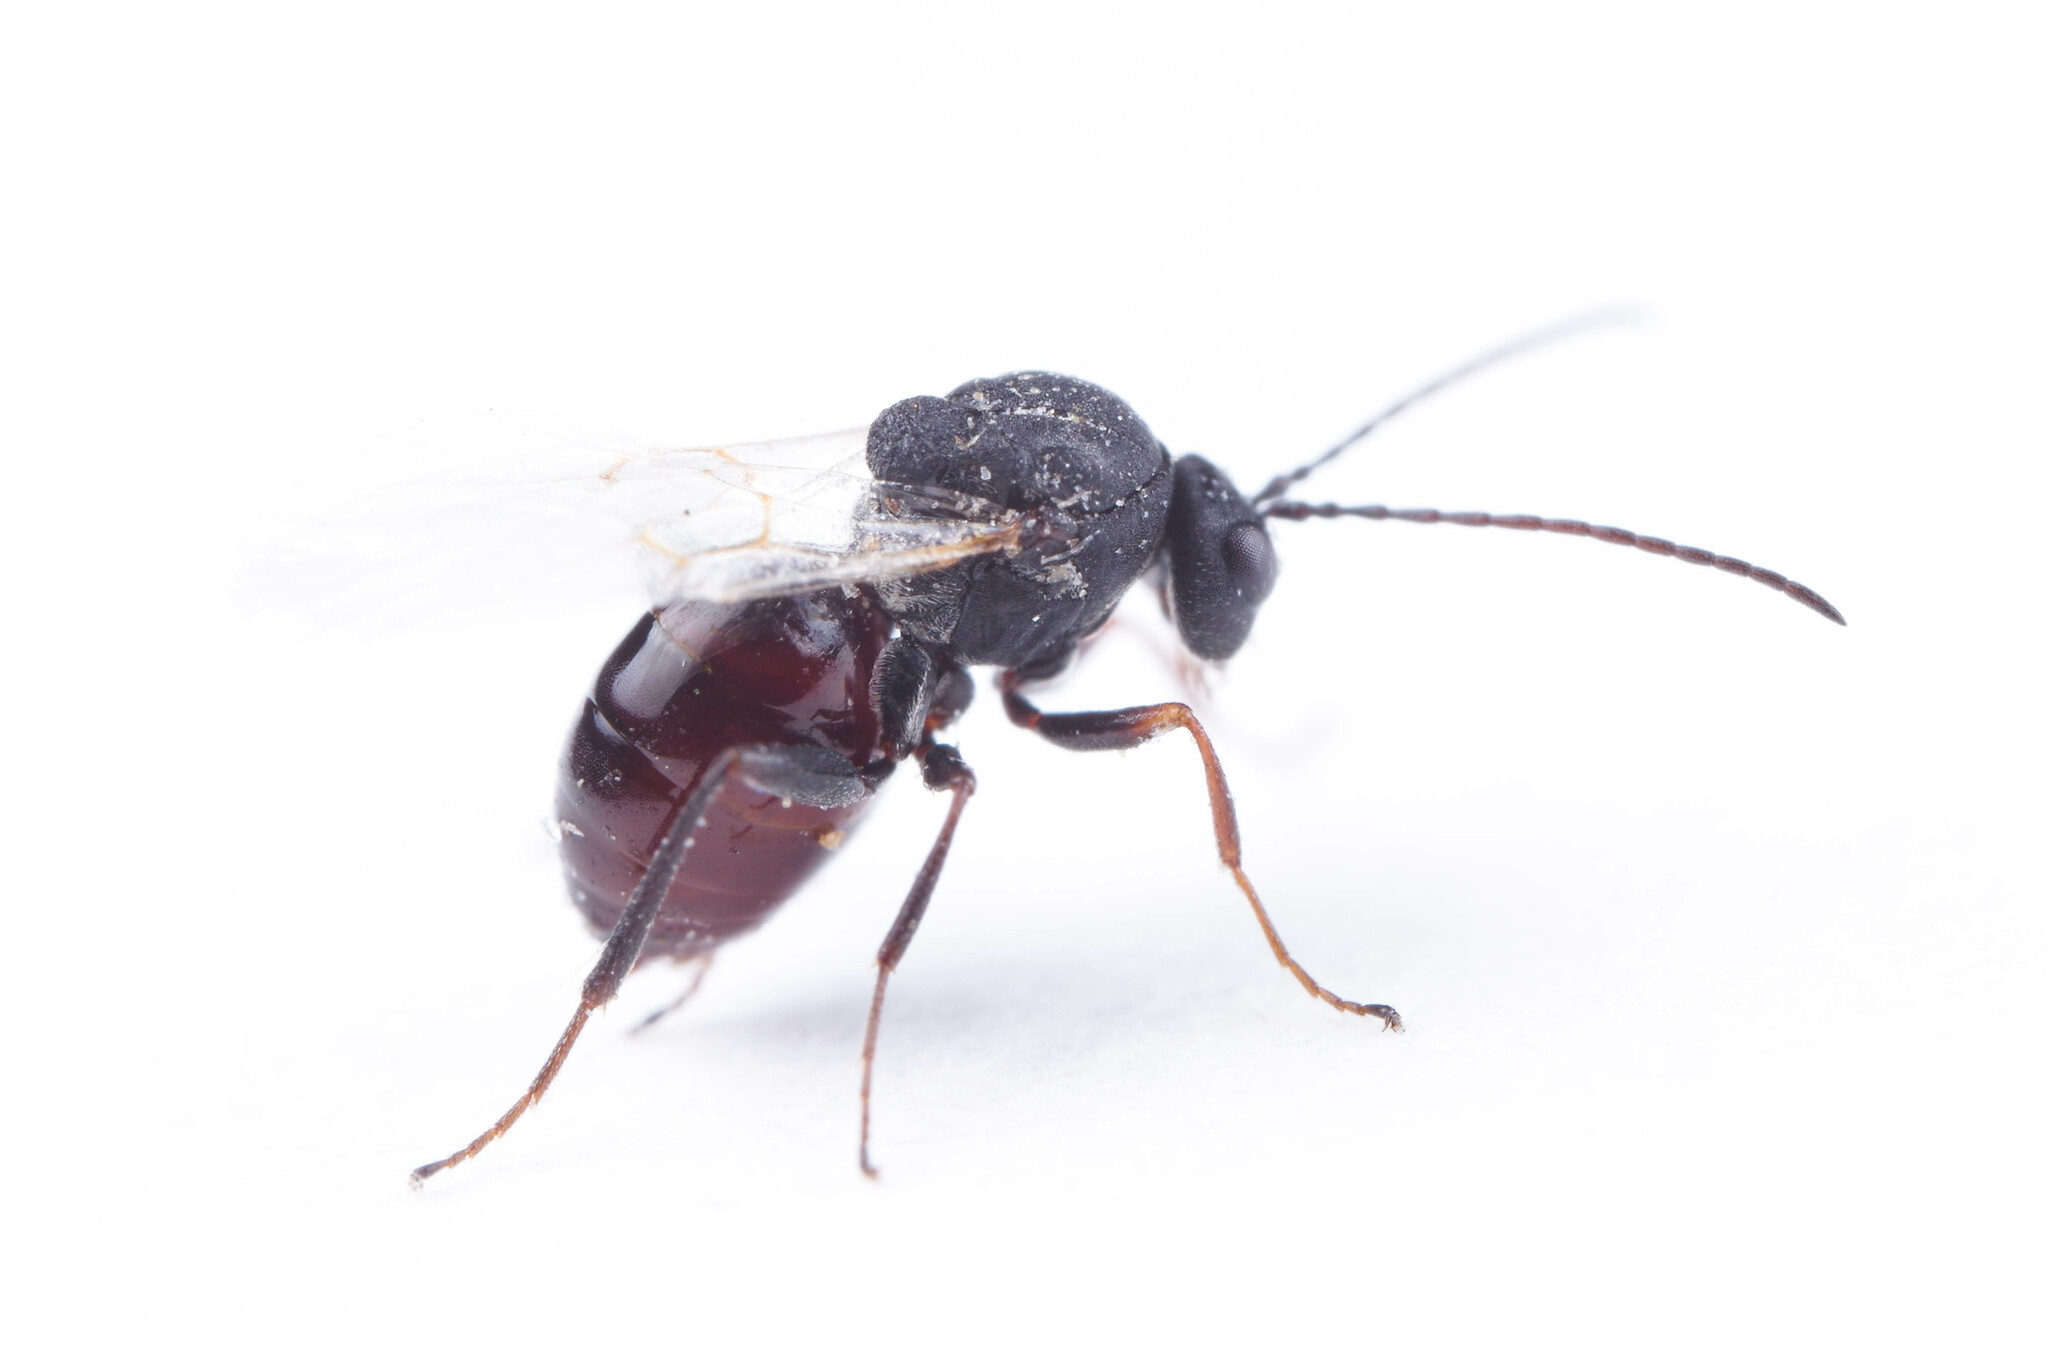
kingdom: Animalia
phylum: Arthropoda
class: Insecta
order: Hymenoptera
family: Cynipidae
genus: Antistrophus
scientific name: Antistrophus
